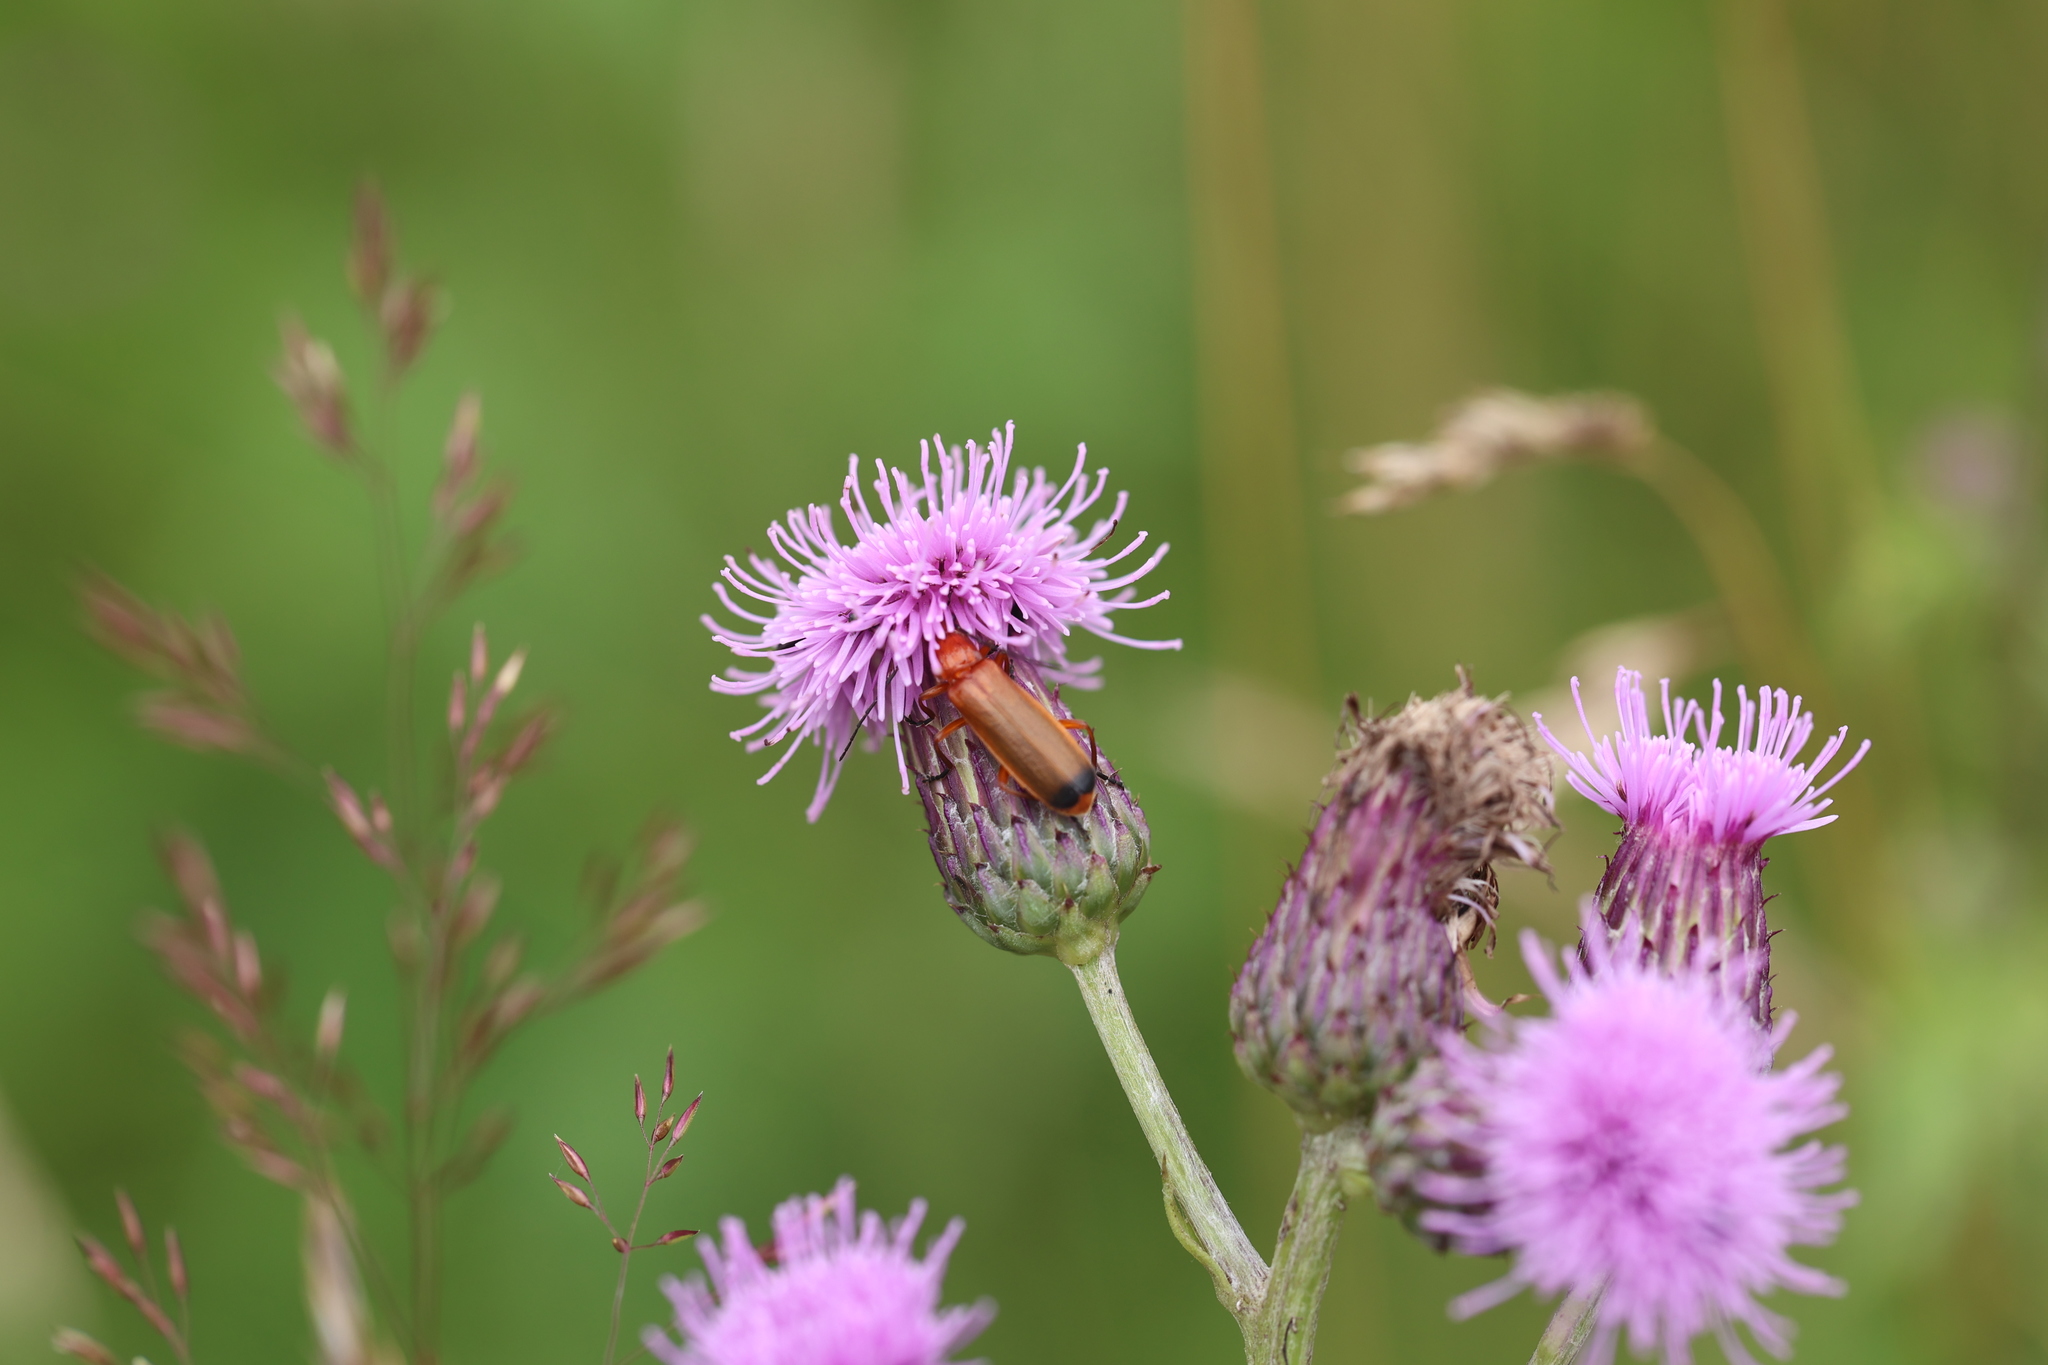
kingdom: Animalia
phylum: Arthropoda
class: Insecta
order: Coleoptera
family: Cantharidae
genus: Rhagonycha
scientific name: Rhagonycha fulva
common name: Common red soldier beetle
